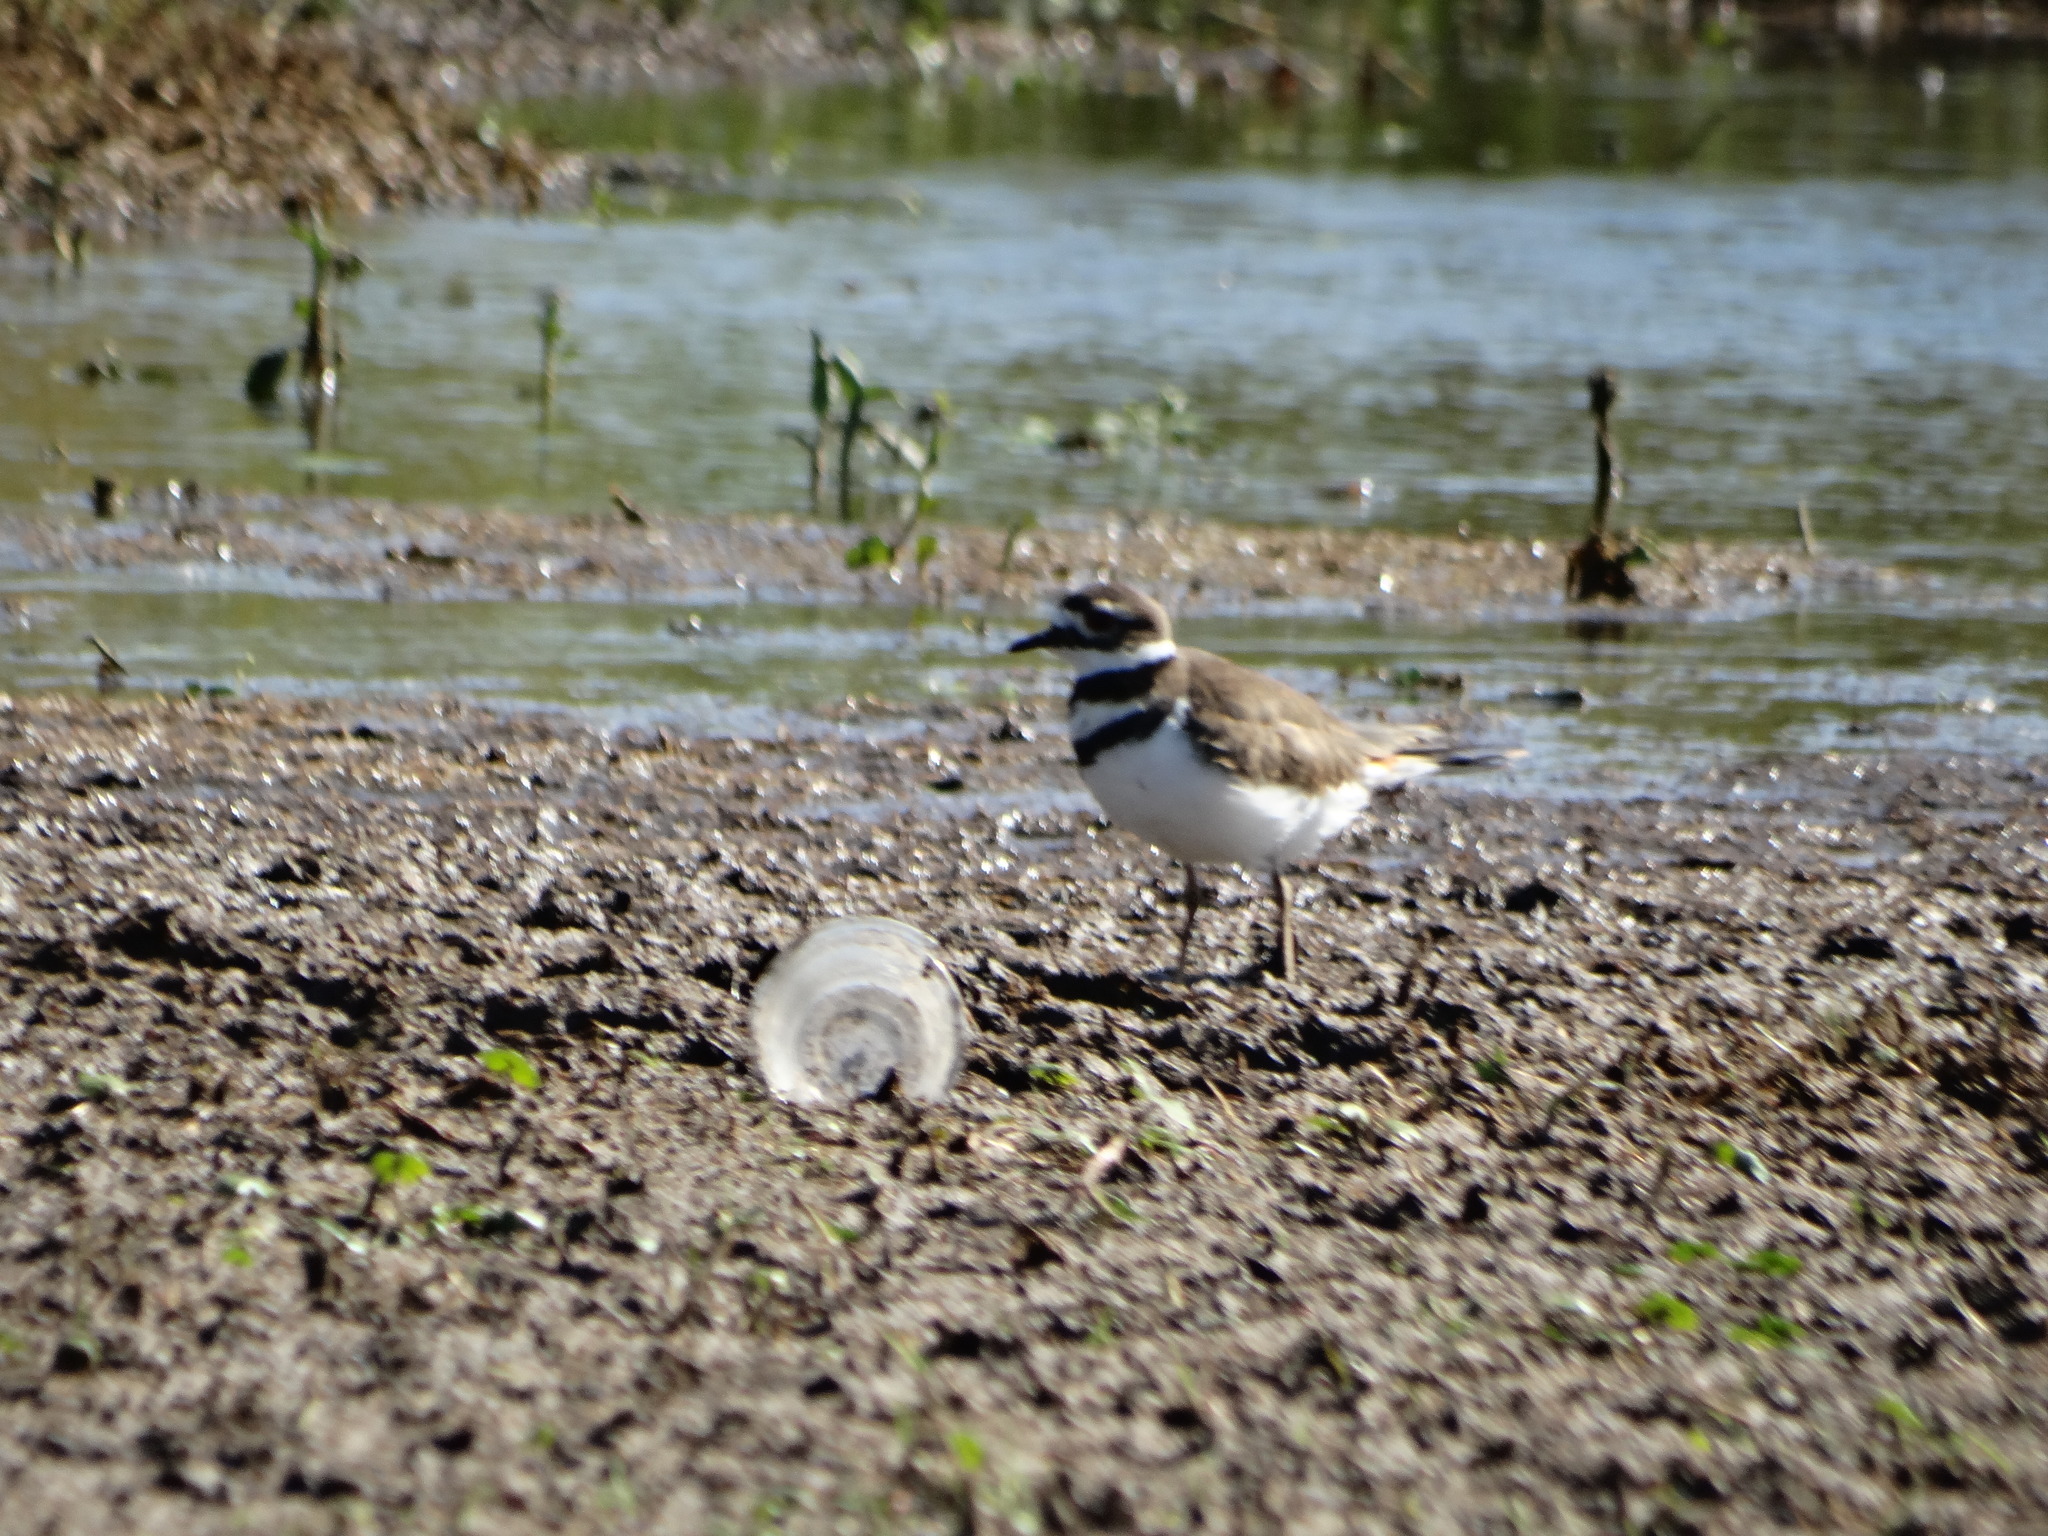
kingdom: Animalia
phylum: Chordata
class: Aves
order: Charadriiformes
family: Charadriidae
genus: Charadrius
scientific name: Charadrius vociferus
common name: Killdeer
